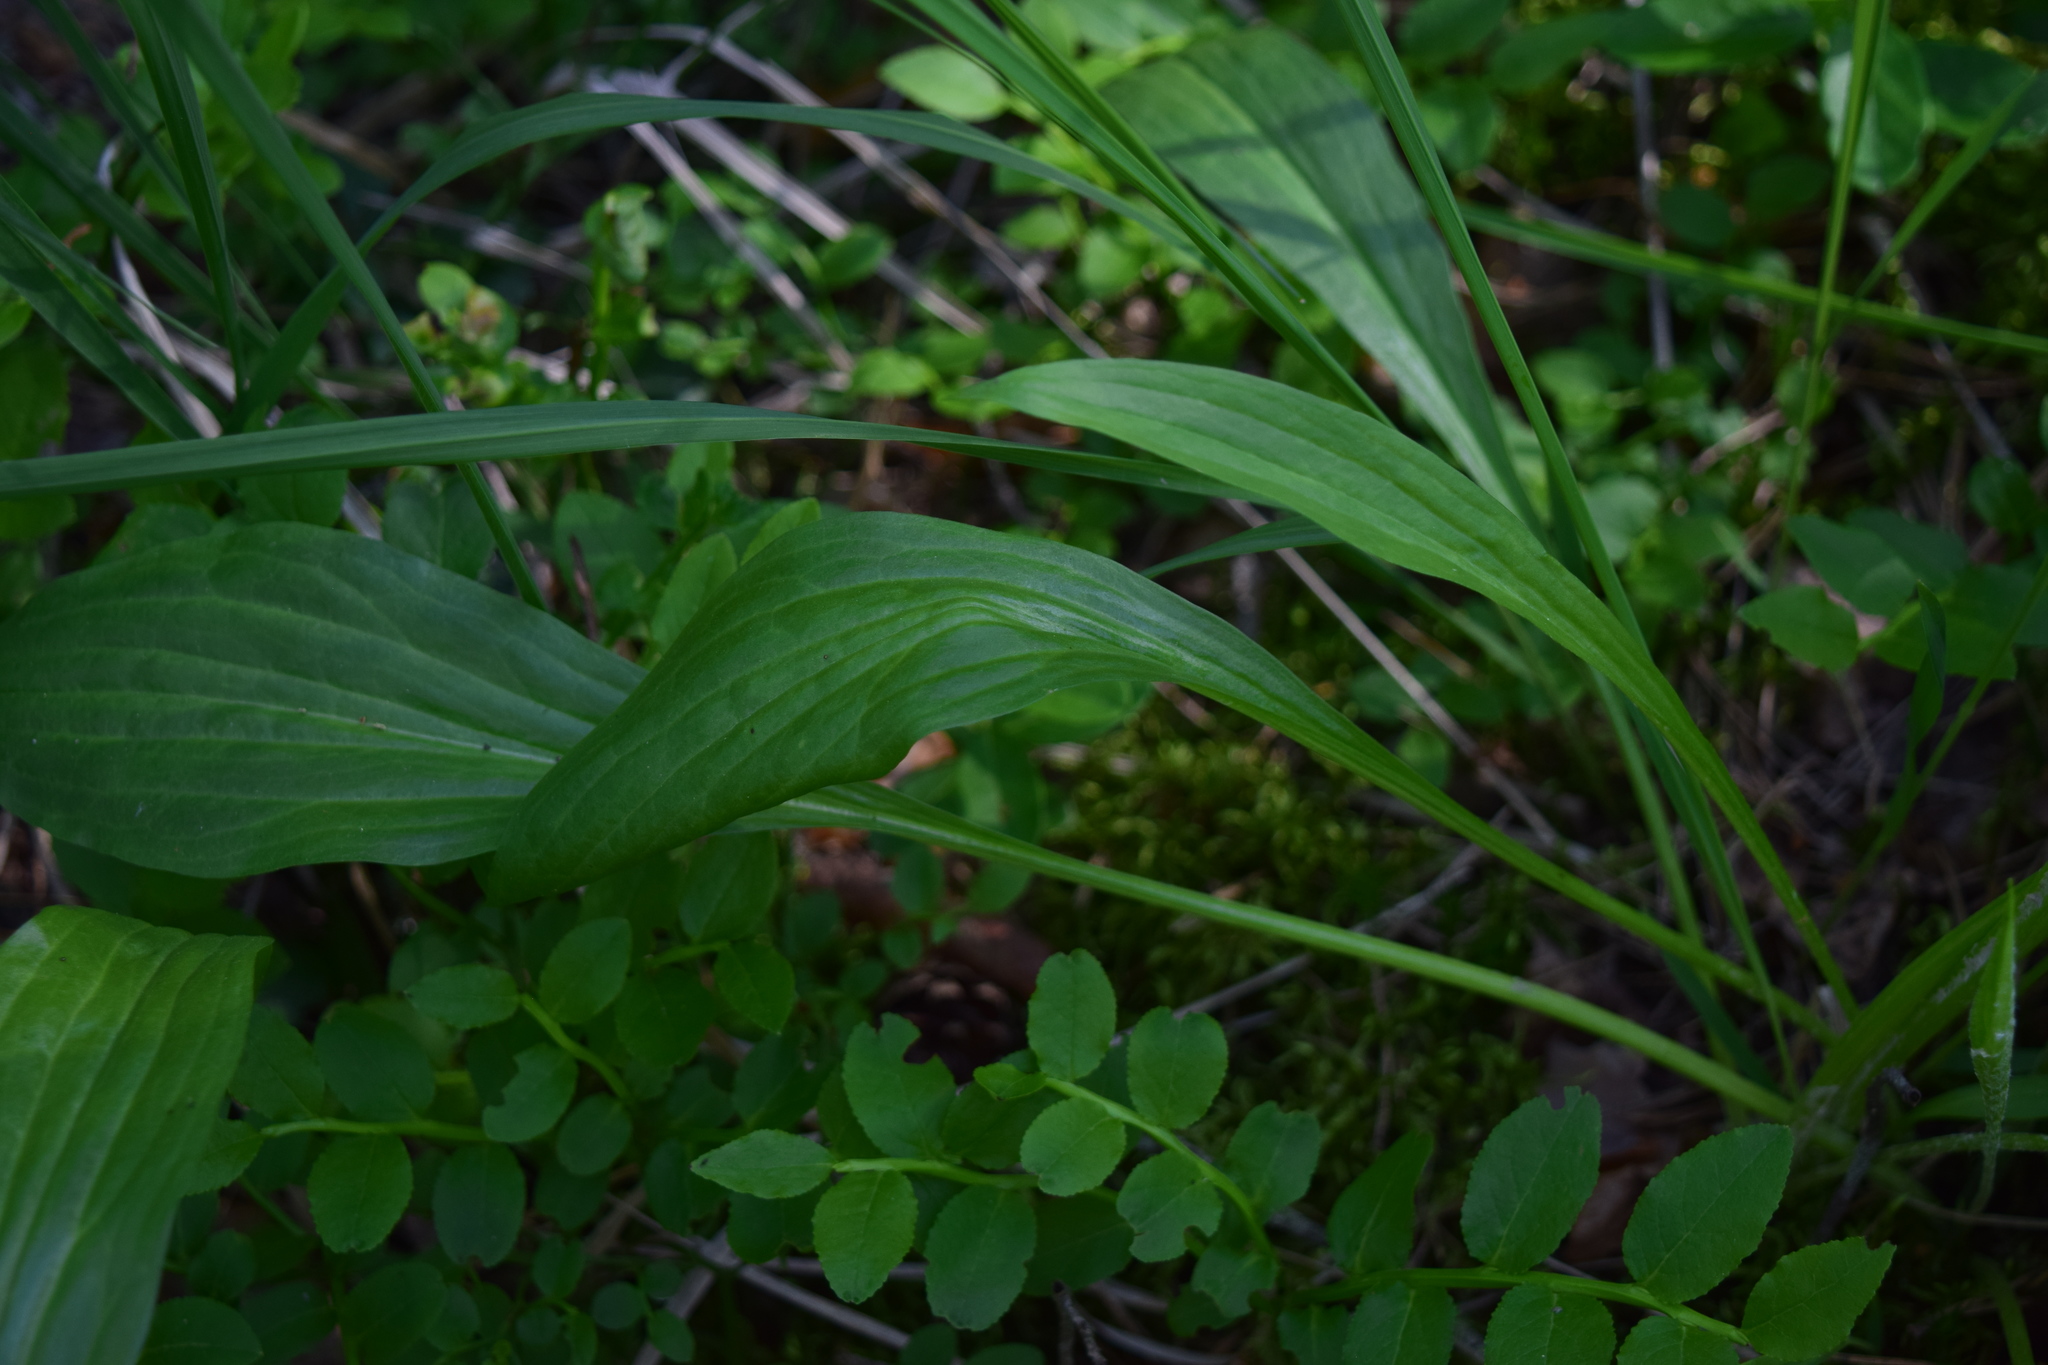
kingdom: Plantae
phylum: Tracheophyta
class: Magnoliopsida
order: Asterales
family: Asteraceae
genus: Scorzonera
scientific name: Scorzonera humilis
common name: Viper's-grass
